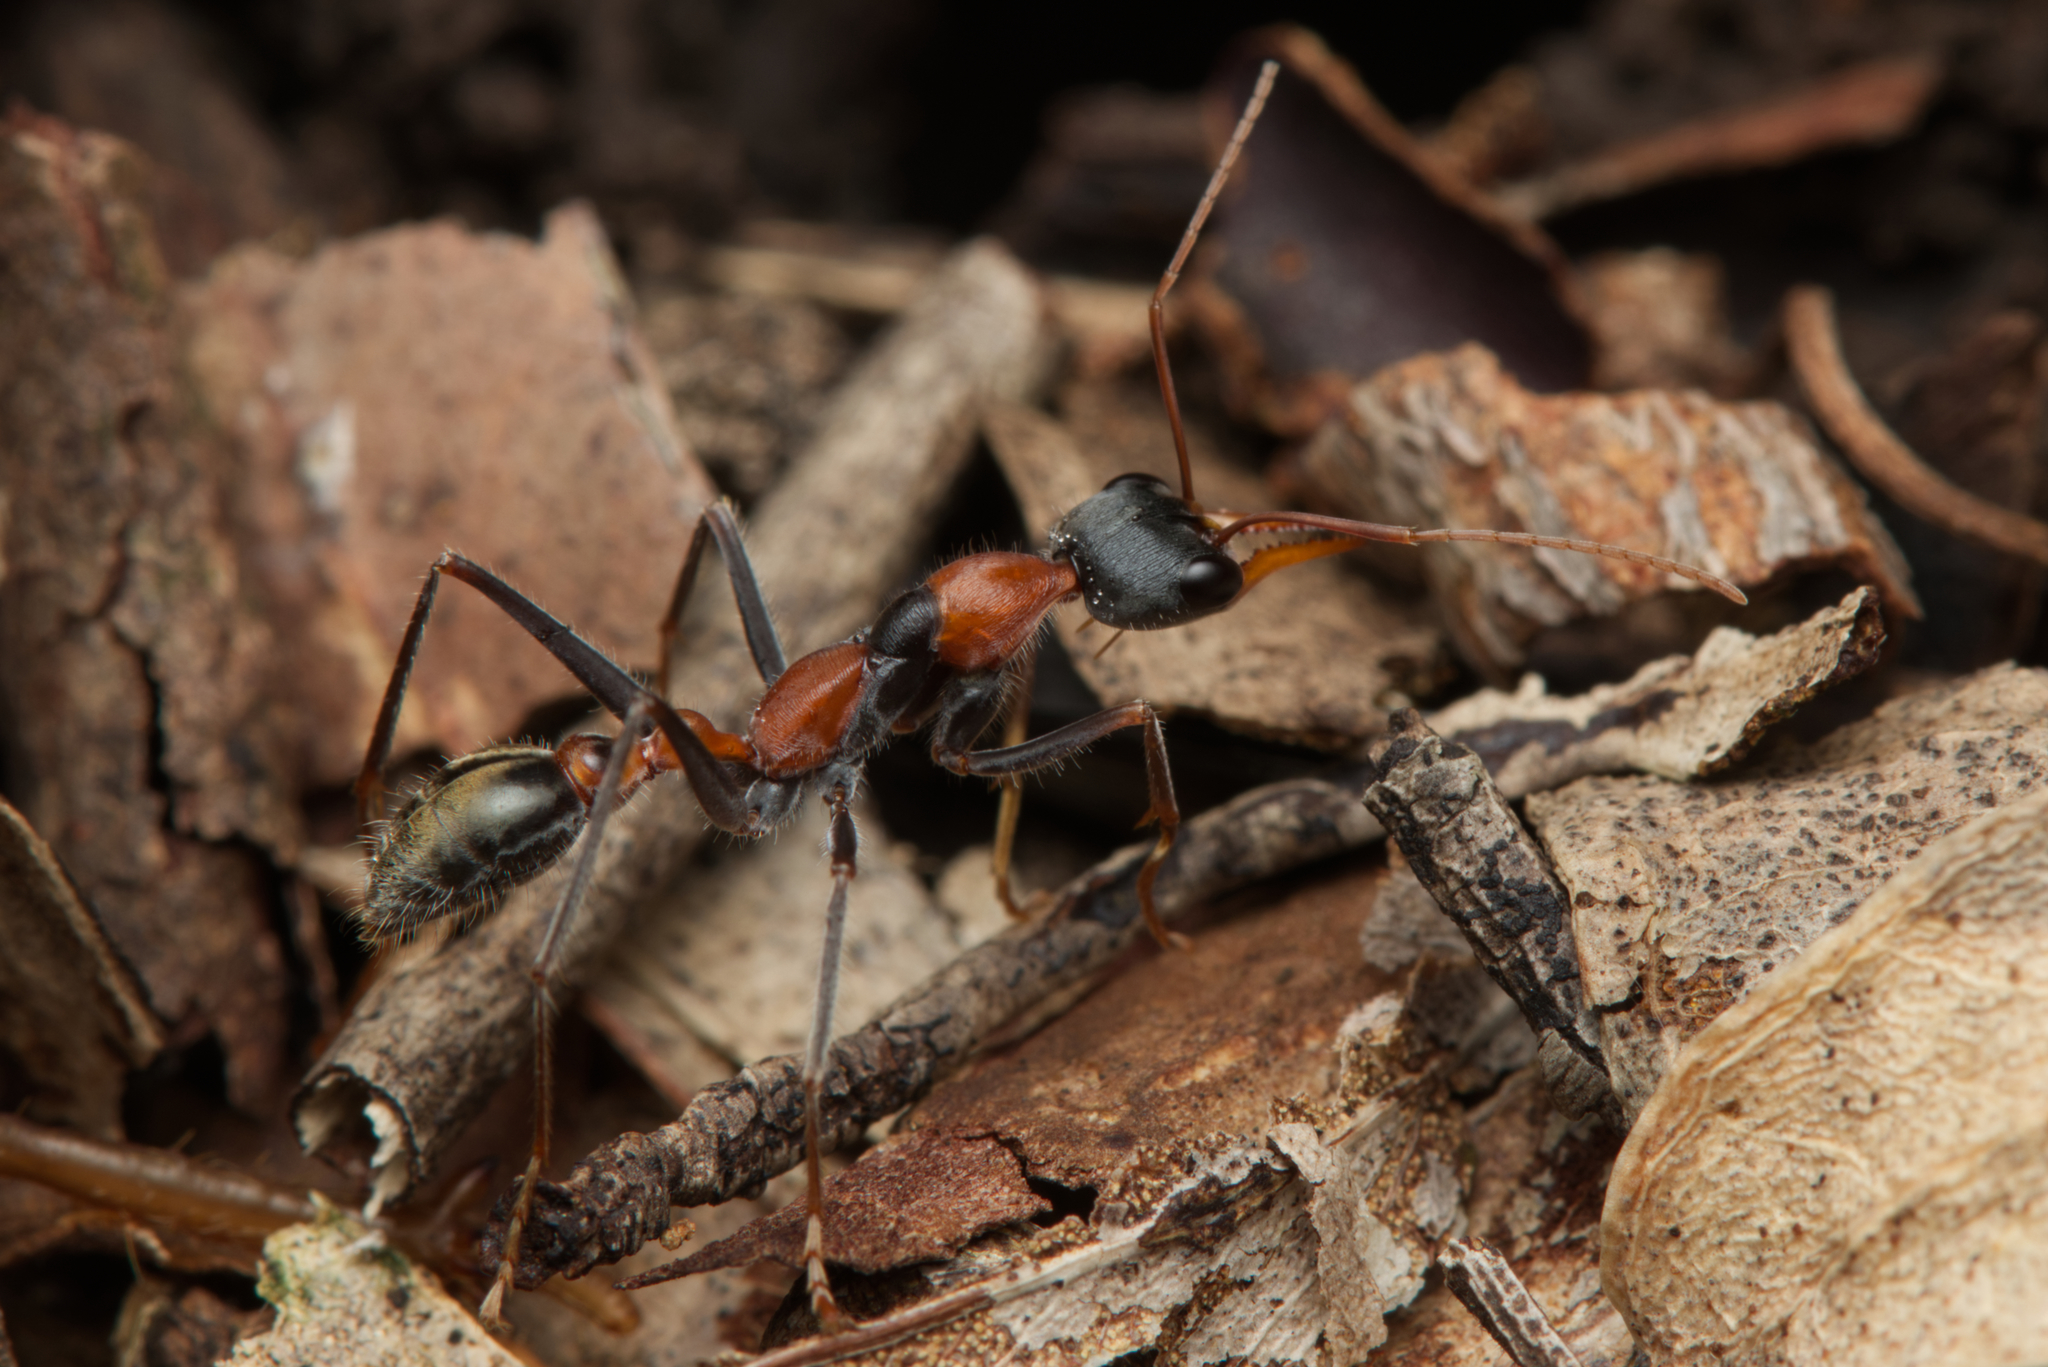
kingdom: Animalia
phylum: Arthropoda
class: Insecta
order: Hymenoptera
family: Formicidae
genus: Myrmecia
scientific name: Myrmecia nigrocincta
